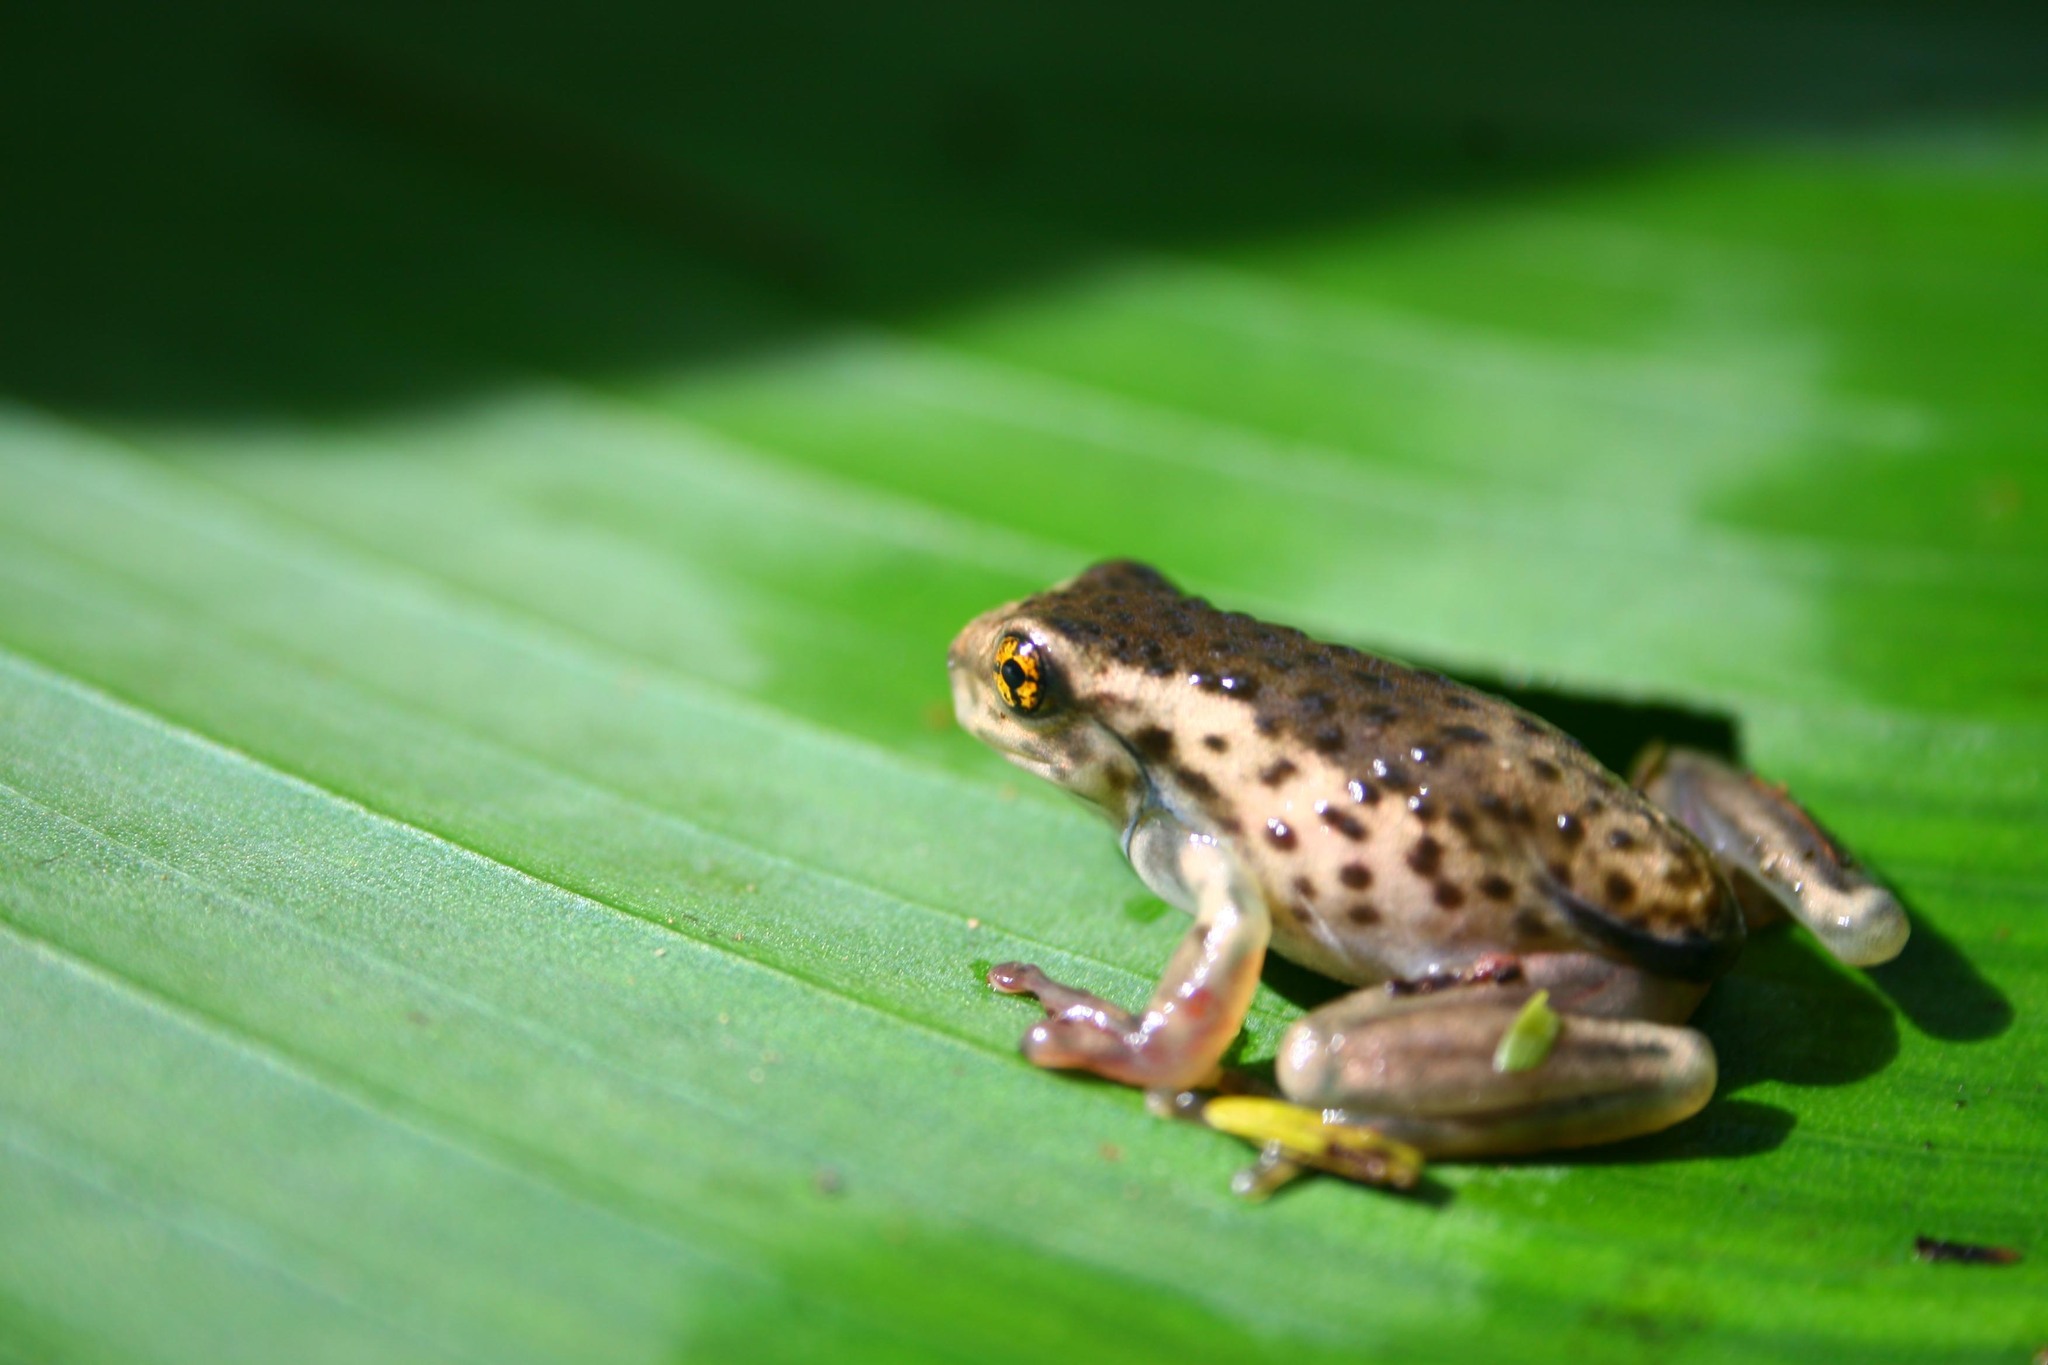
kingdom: Animalia
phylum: Chordata
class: Amphibia
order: Anura
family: Hylidae
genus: Trachycephalus
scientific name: Trachycephalus vermiculatus
